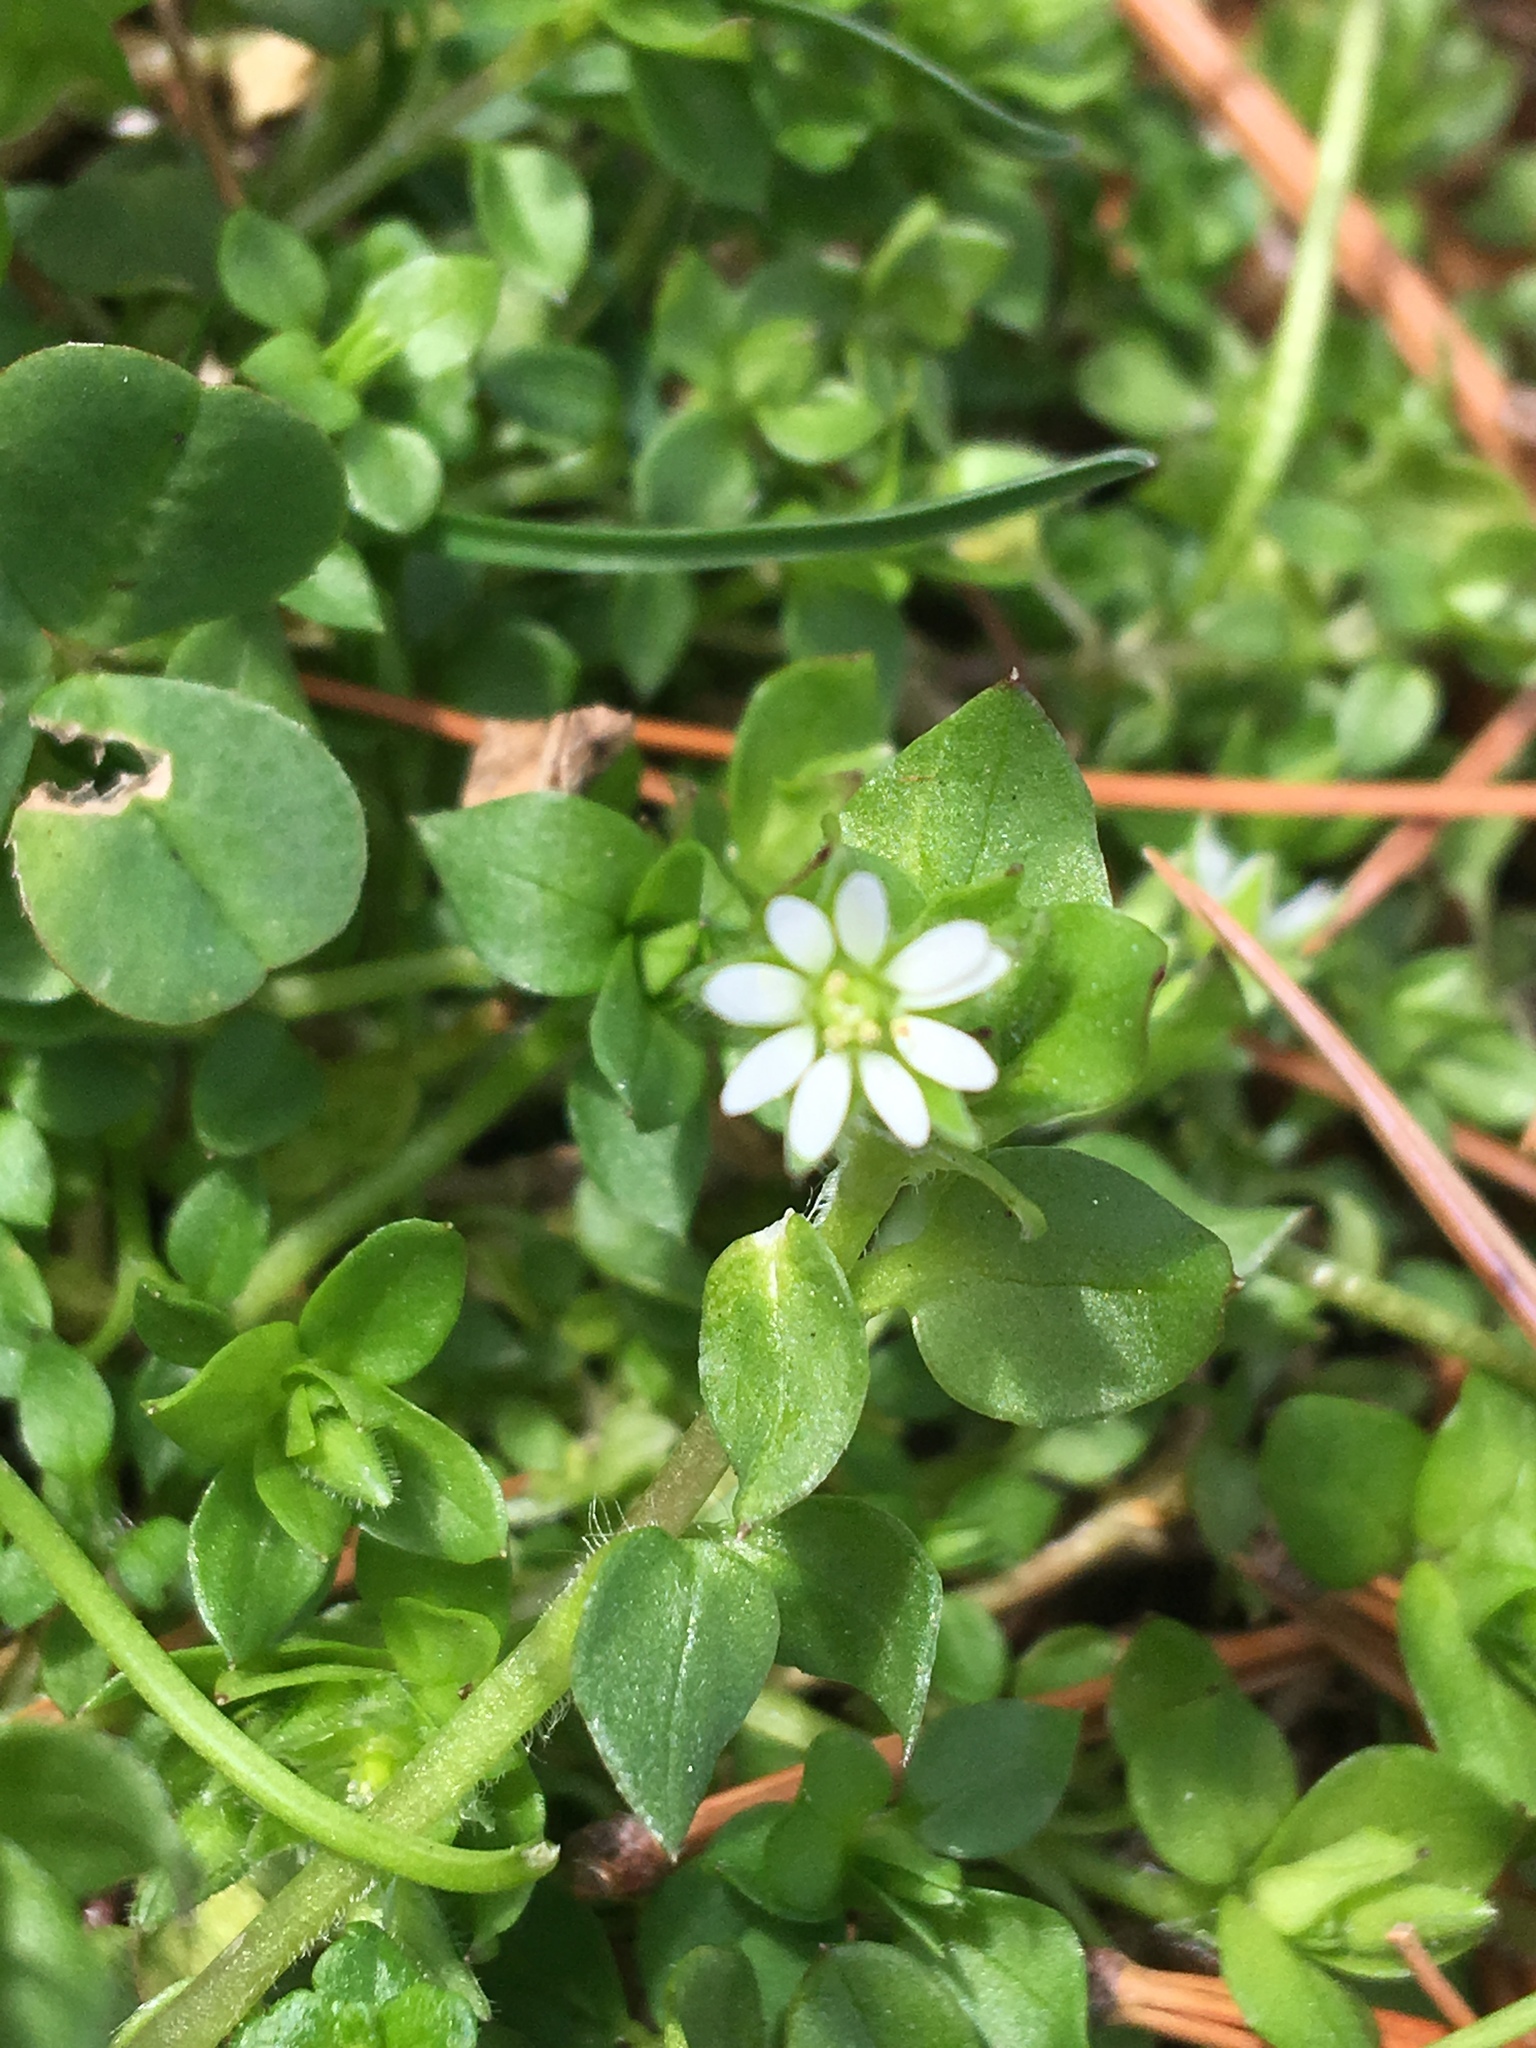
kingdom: Plantae
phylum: Tracheophyta
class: Magnoliopsida
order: Caryophyllales
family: Caryophyllaceae
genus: Stellaria
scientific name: Stellaria media
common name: Common chickweed
